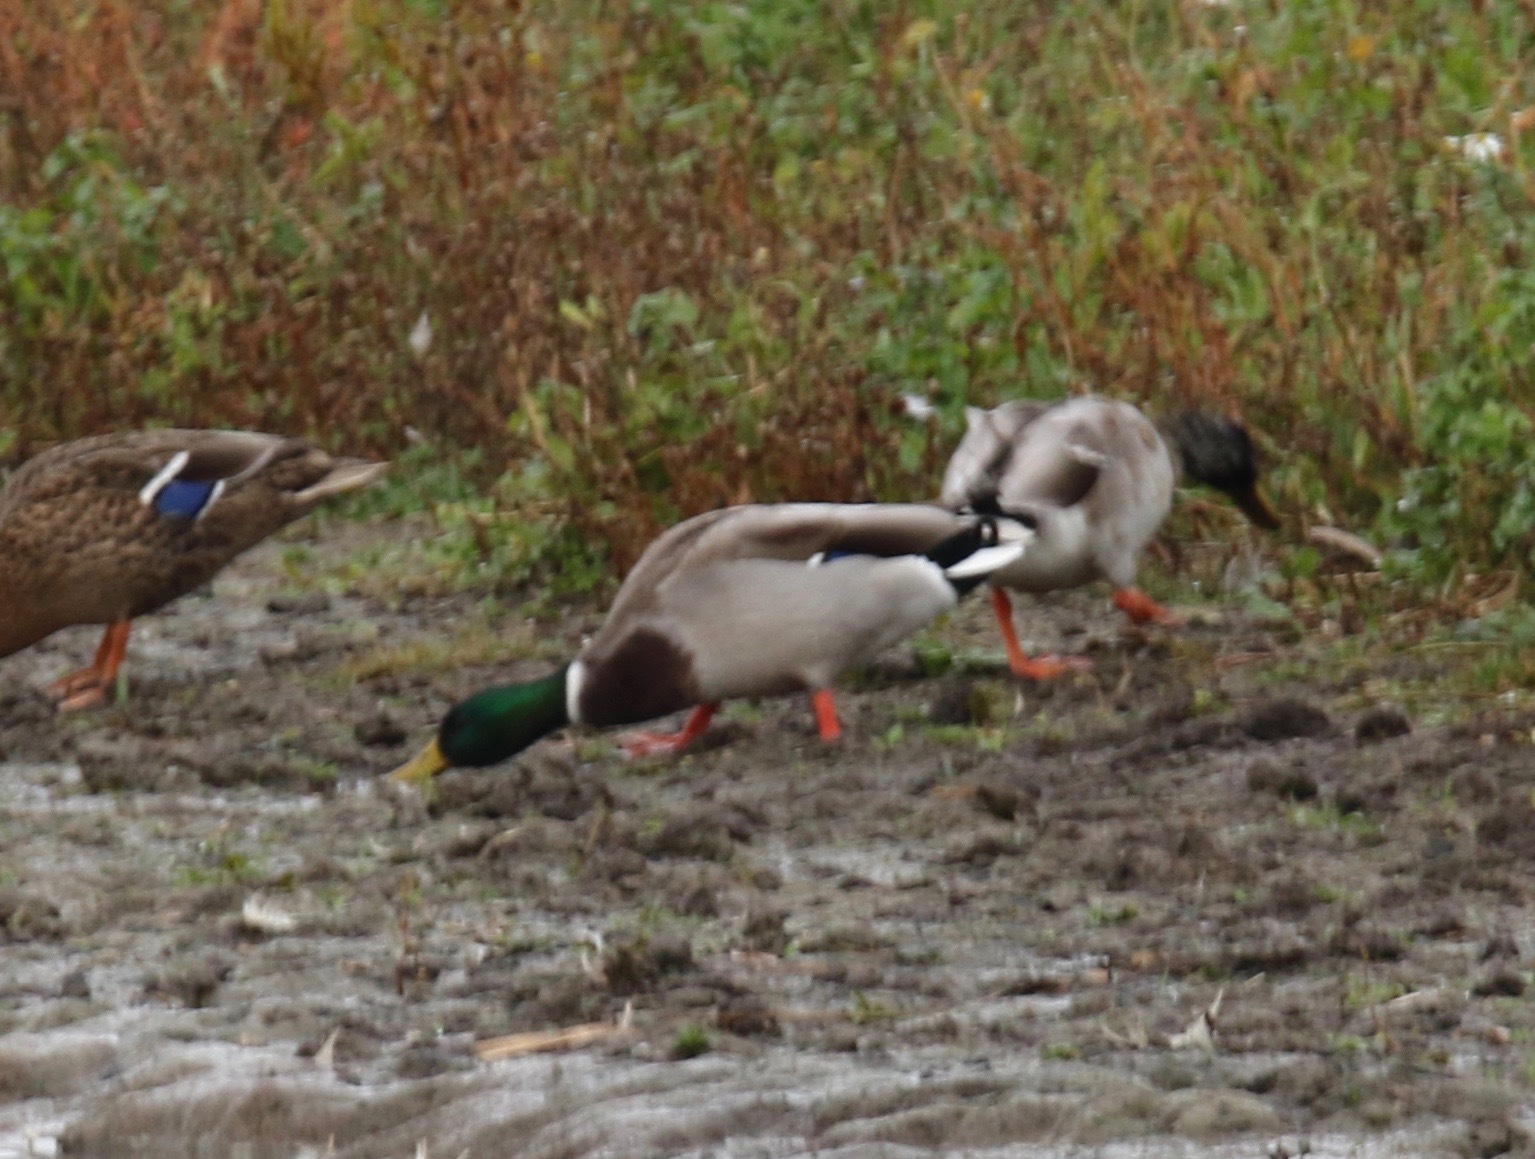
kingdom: Animalia
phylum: Chordata
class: Aves
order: Anseriformes
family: Anatidae
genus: Anas
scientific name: Anas platyrhynchos
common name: Mallard
